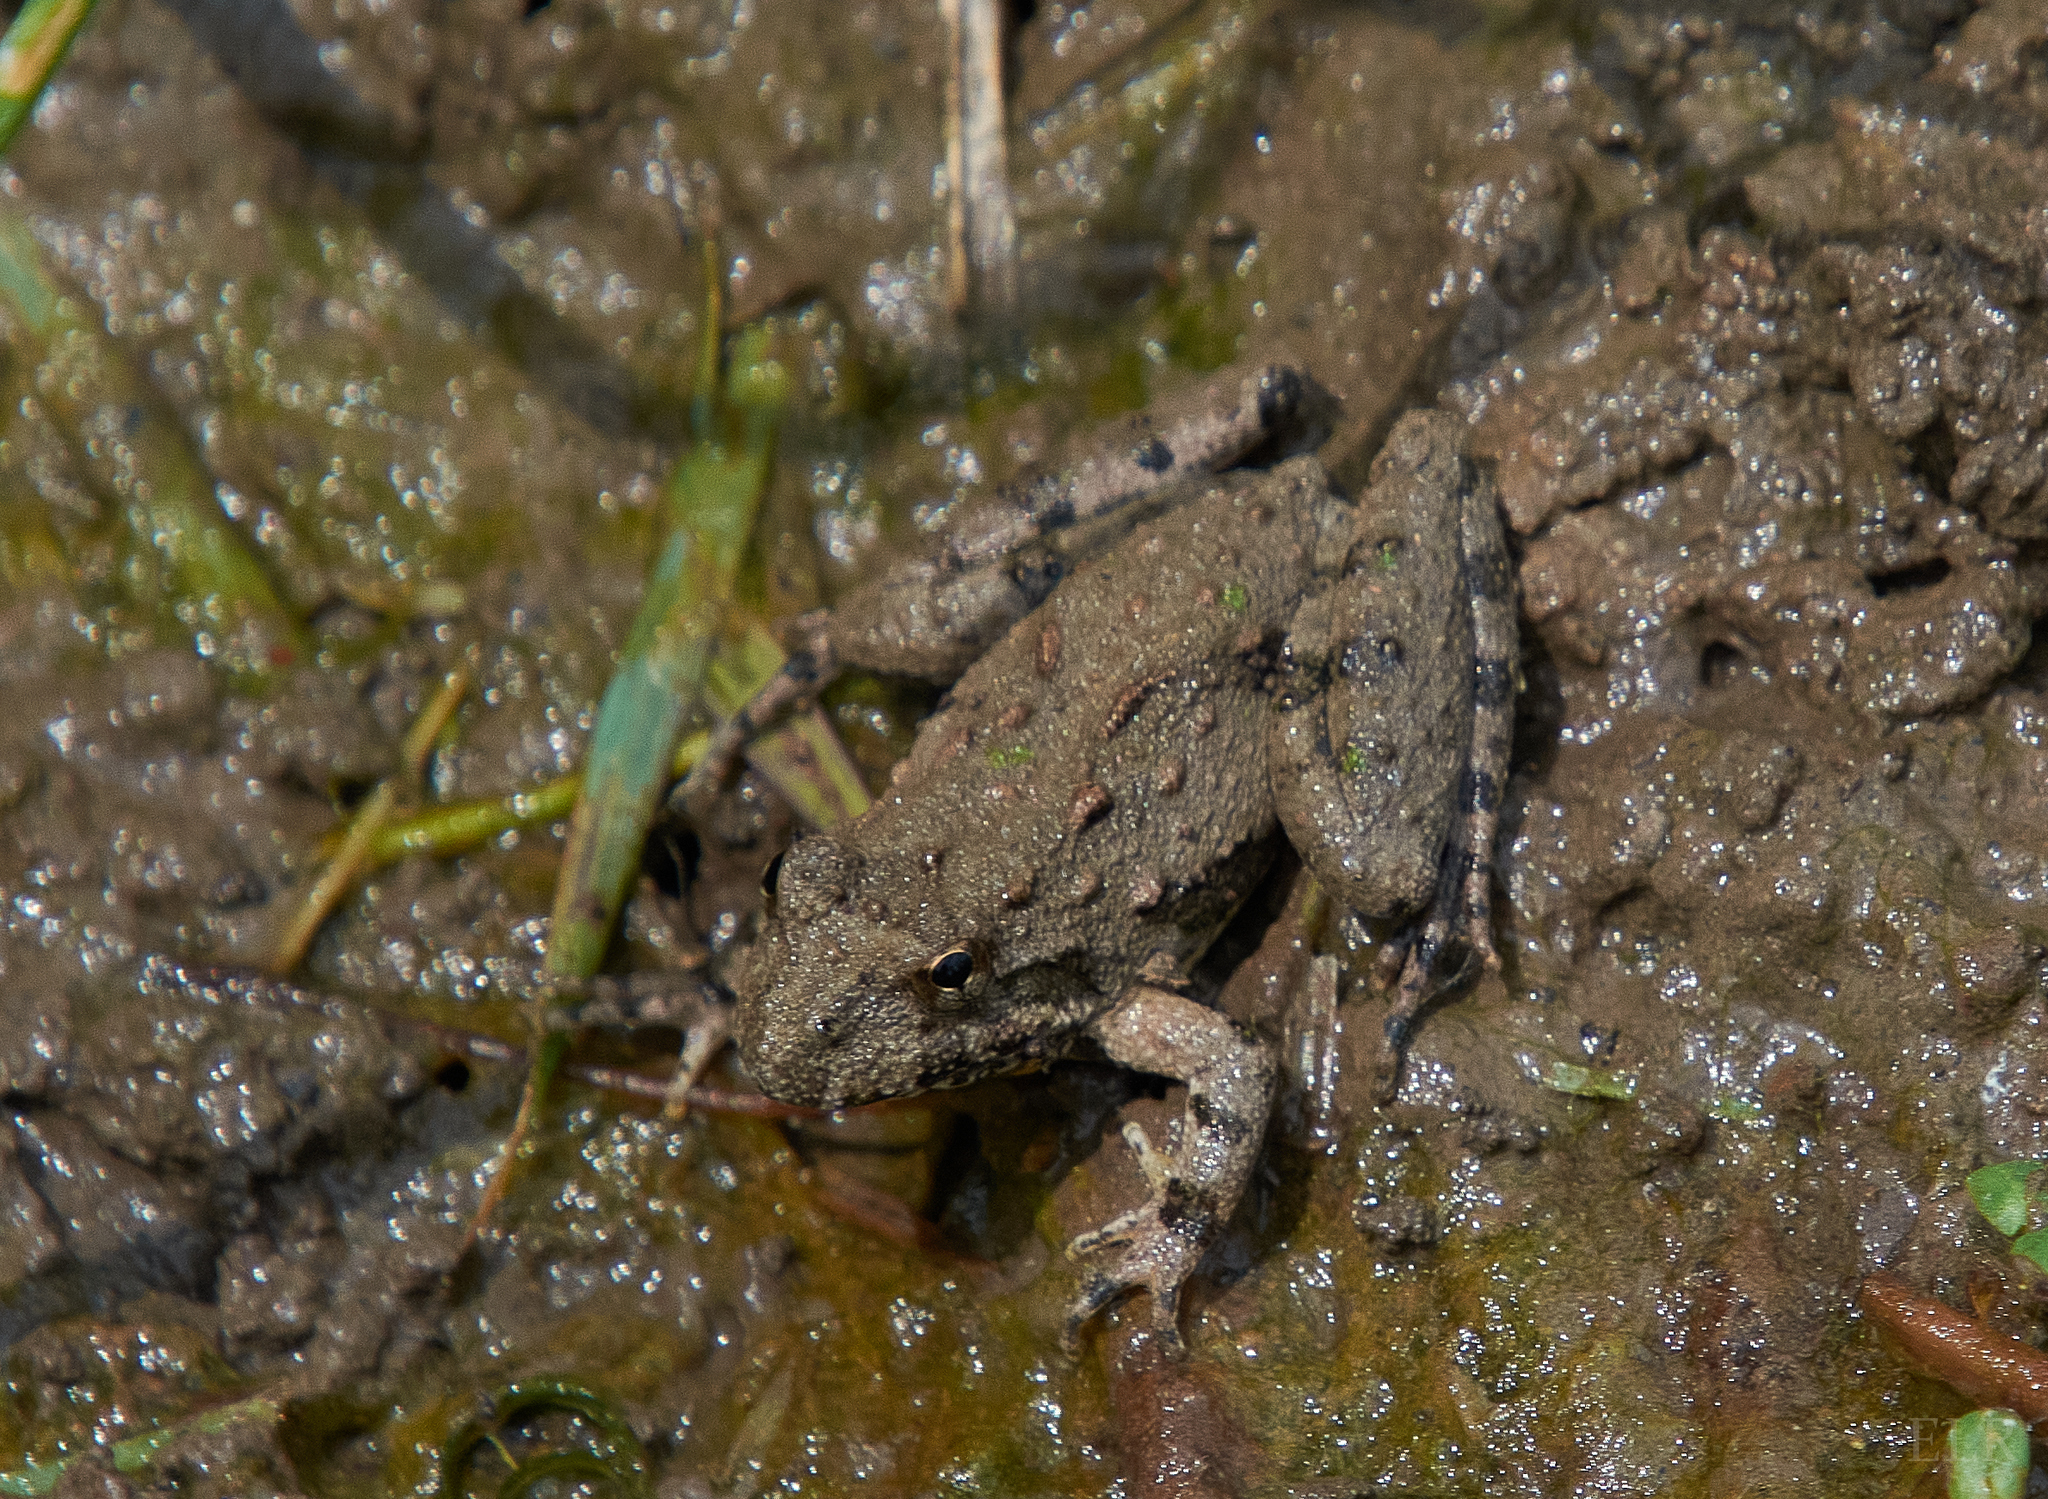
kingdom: Animalia
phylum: Chordata
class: Amphibia
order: Anura
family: Hylidae
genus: Acris
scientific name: Acris blanchardi
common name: Blanchard's cricket frog
